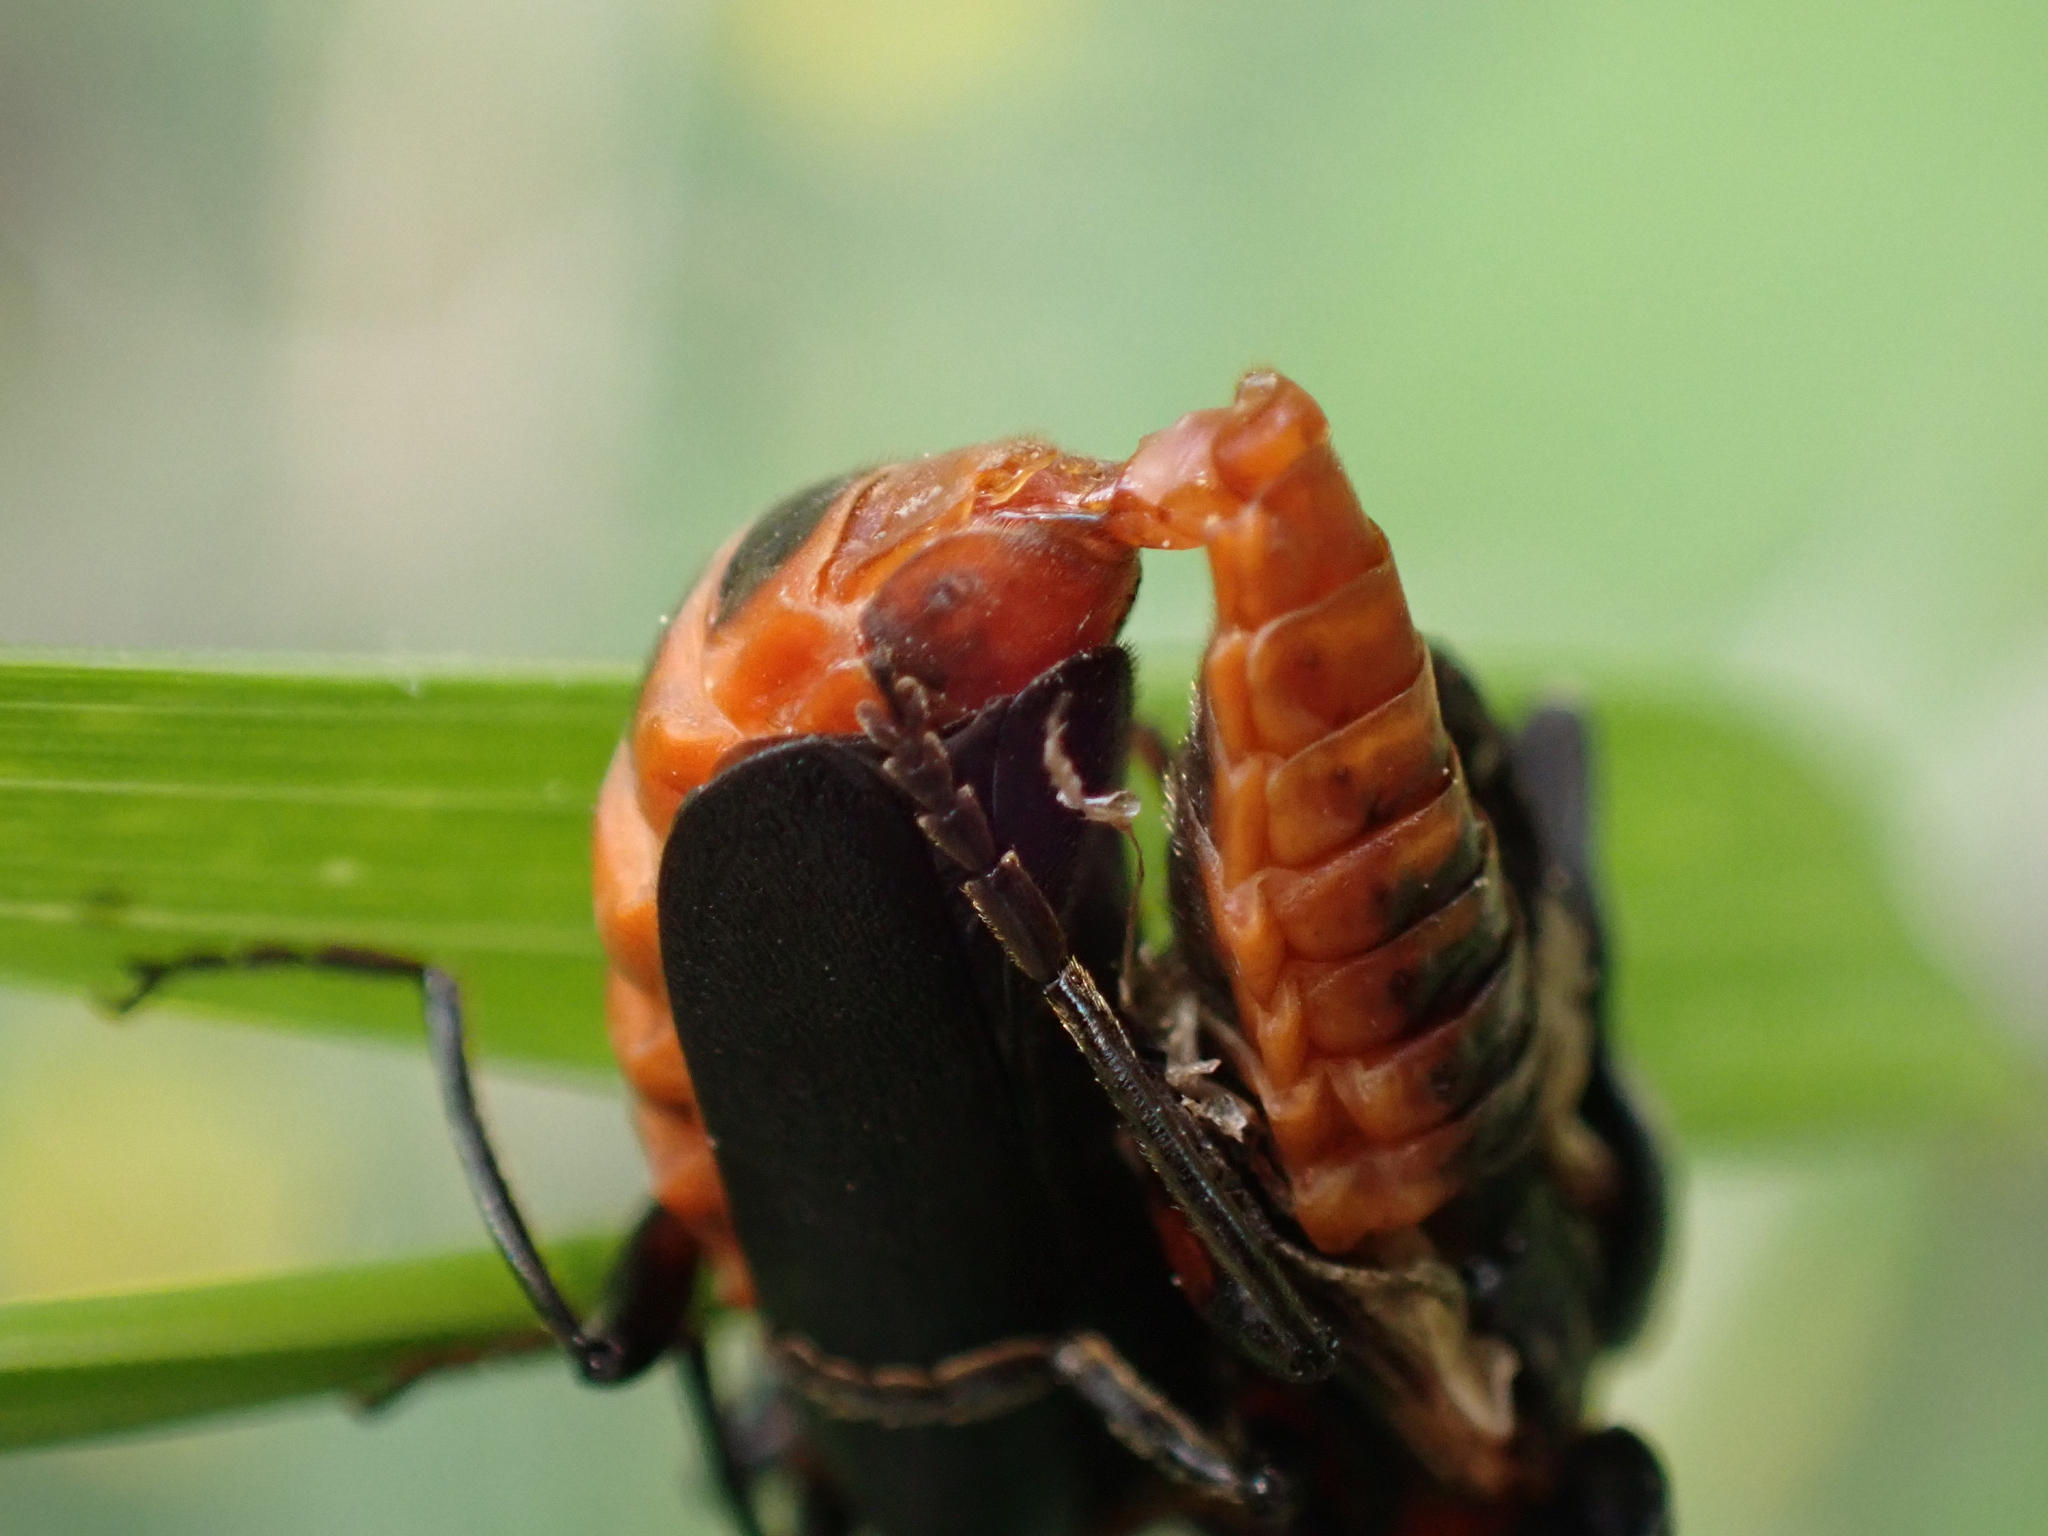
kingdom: Animalia
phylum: Arthropoda
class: Insecta
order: Coleoptera
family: Cantharidae
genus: Cantharis
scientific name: Cantharis rustica
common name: Soldier beetle
